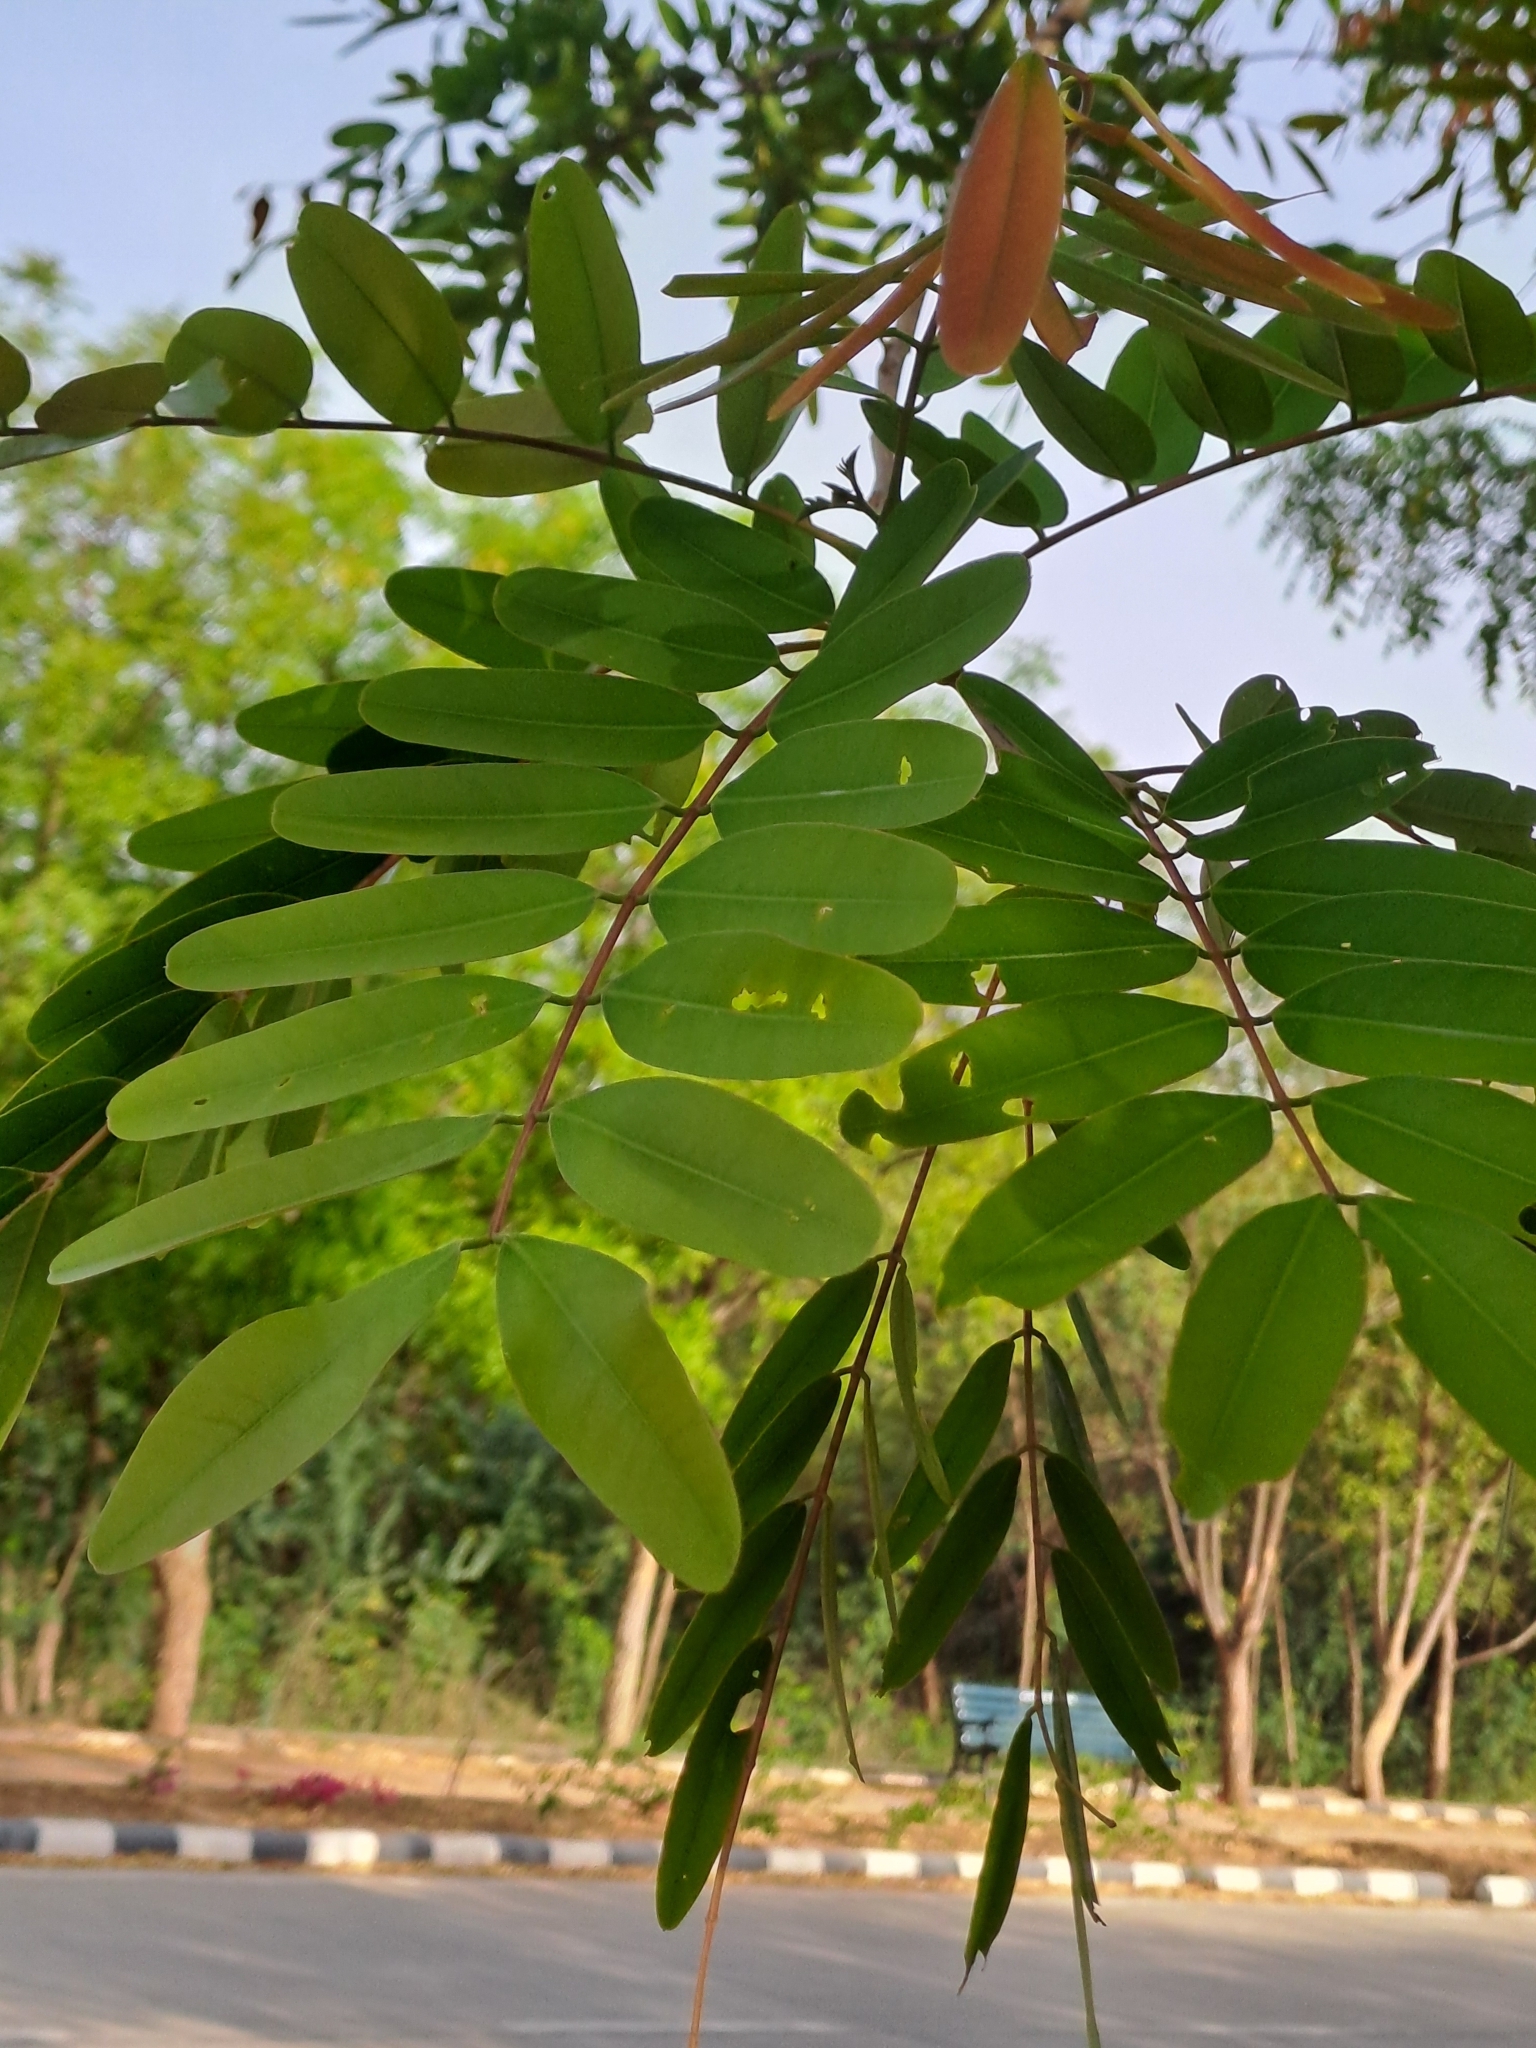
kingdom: Plantae
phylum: Tracheophyta
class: Magnoliopsida
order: Fabales
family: Fabaceae
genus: Senna
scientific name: Senna siamea
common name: Siamese cassia
